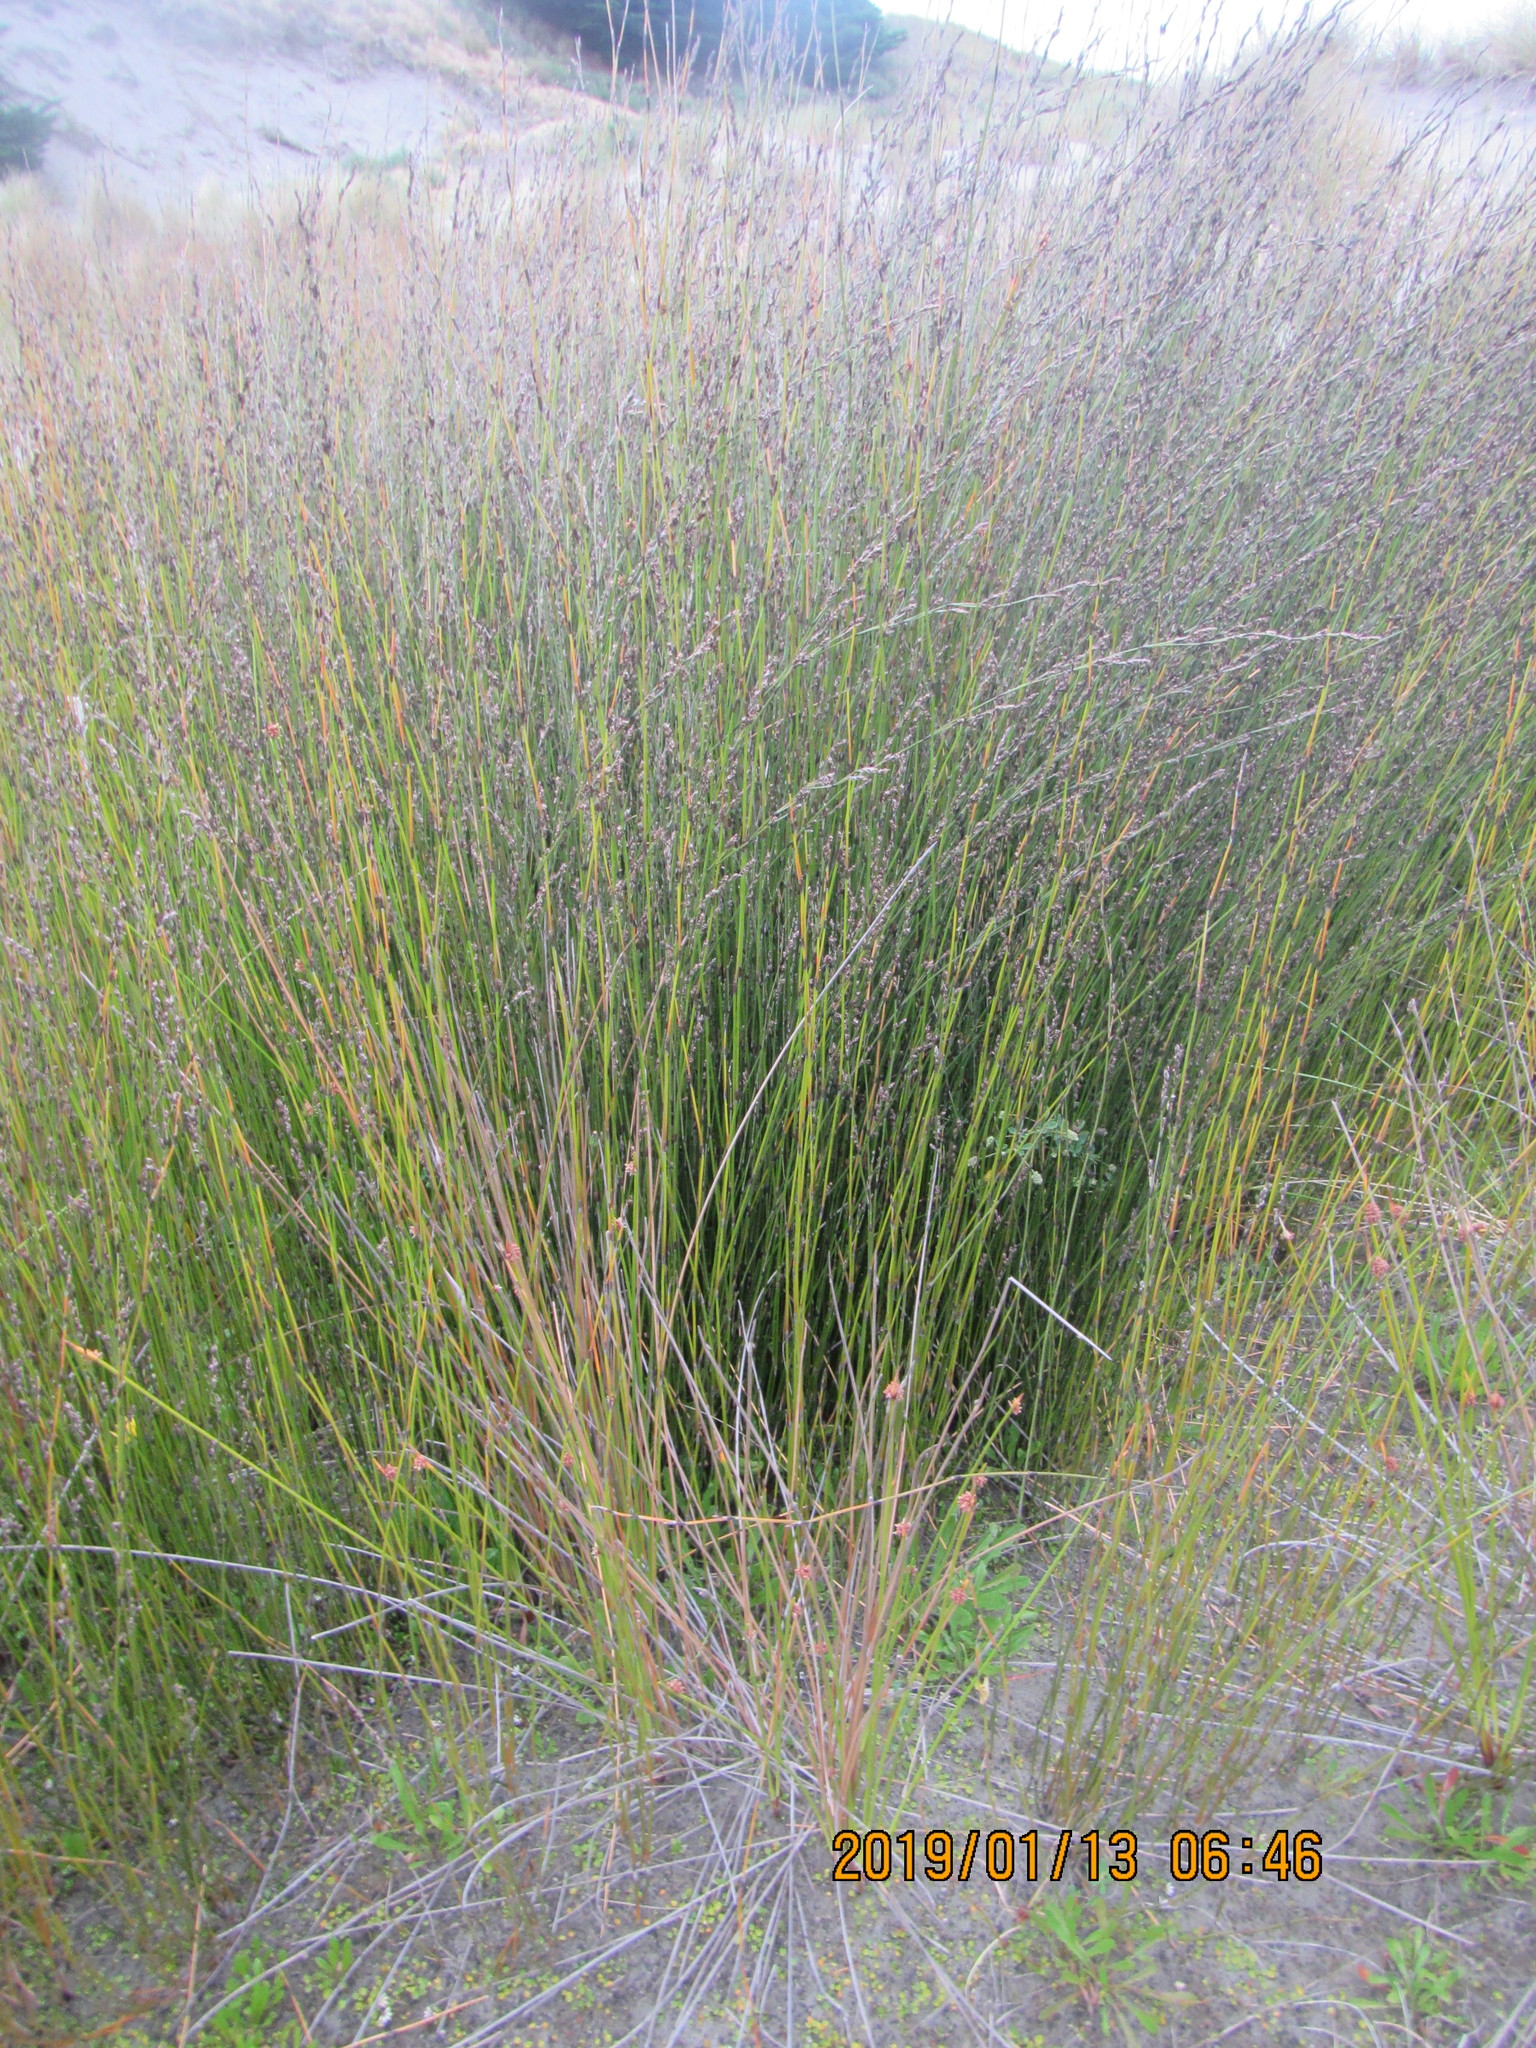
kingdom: Plantae
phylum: Tracheophyta
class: Liliopsida
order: Poales
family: Restionaceae
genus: Apodasmia
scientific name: Apodasmia similis
